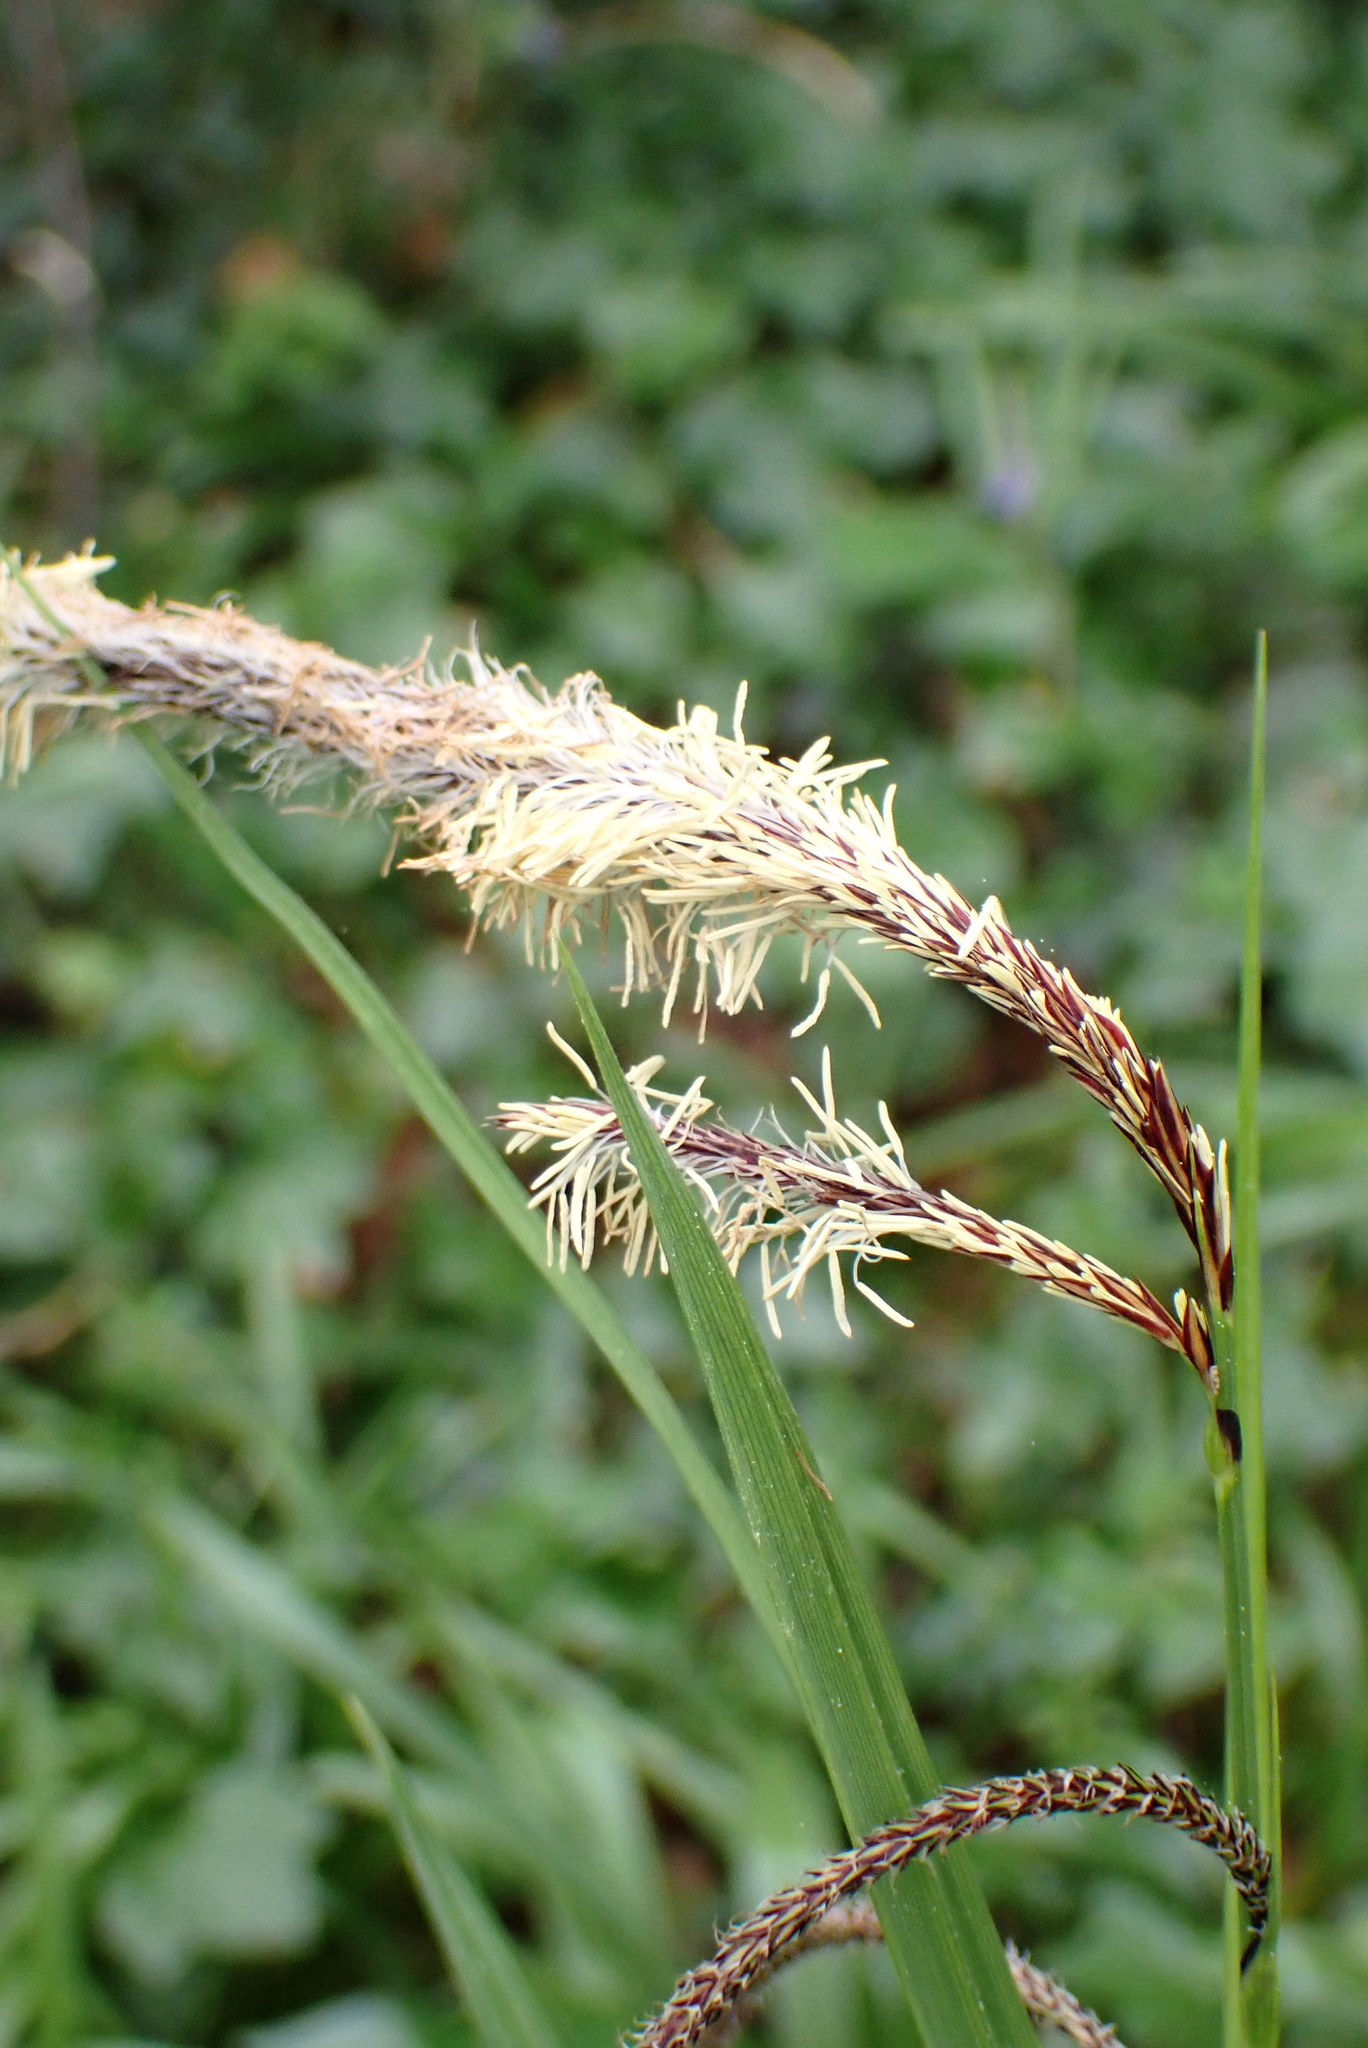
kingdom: Plantae
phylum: Tracheophyta
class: Liliopsida
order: Poales
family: Cyperaceae
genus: Carex
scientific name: Carex pendula
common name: Pendulous sedge
